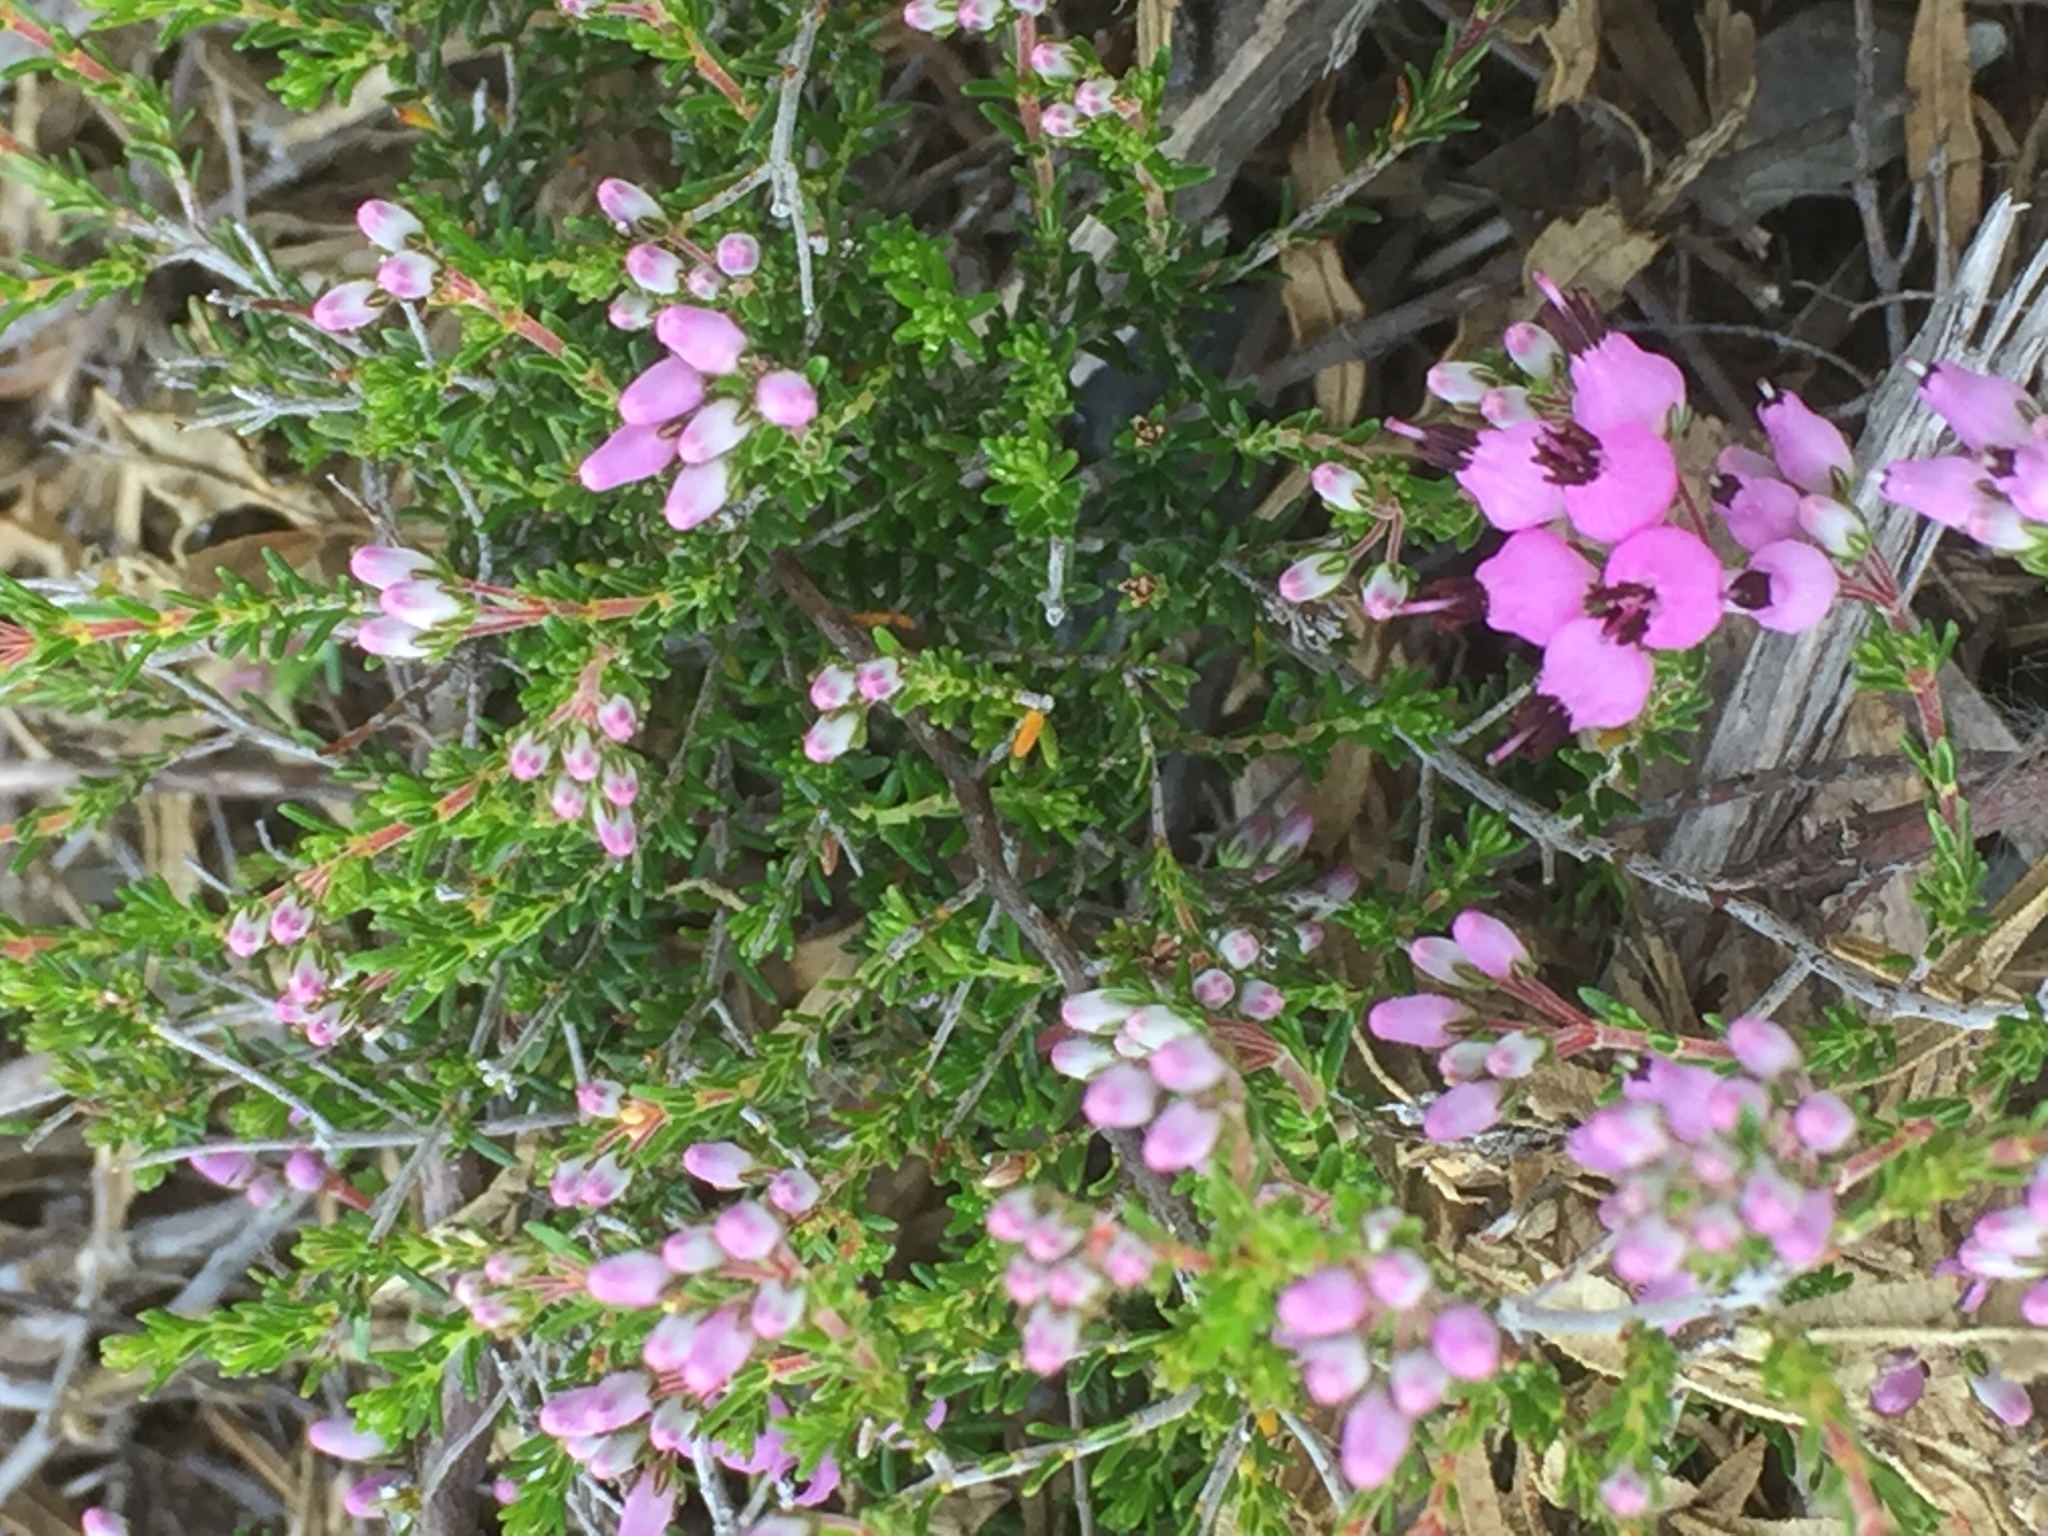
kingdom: Plantae
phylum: Tracheophyta
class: Magnoliopsida
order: Ericales
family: Ericaceae
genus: Erica
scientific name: Erica umbellata
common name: Dwarf spanish heath
